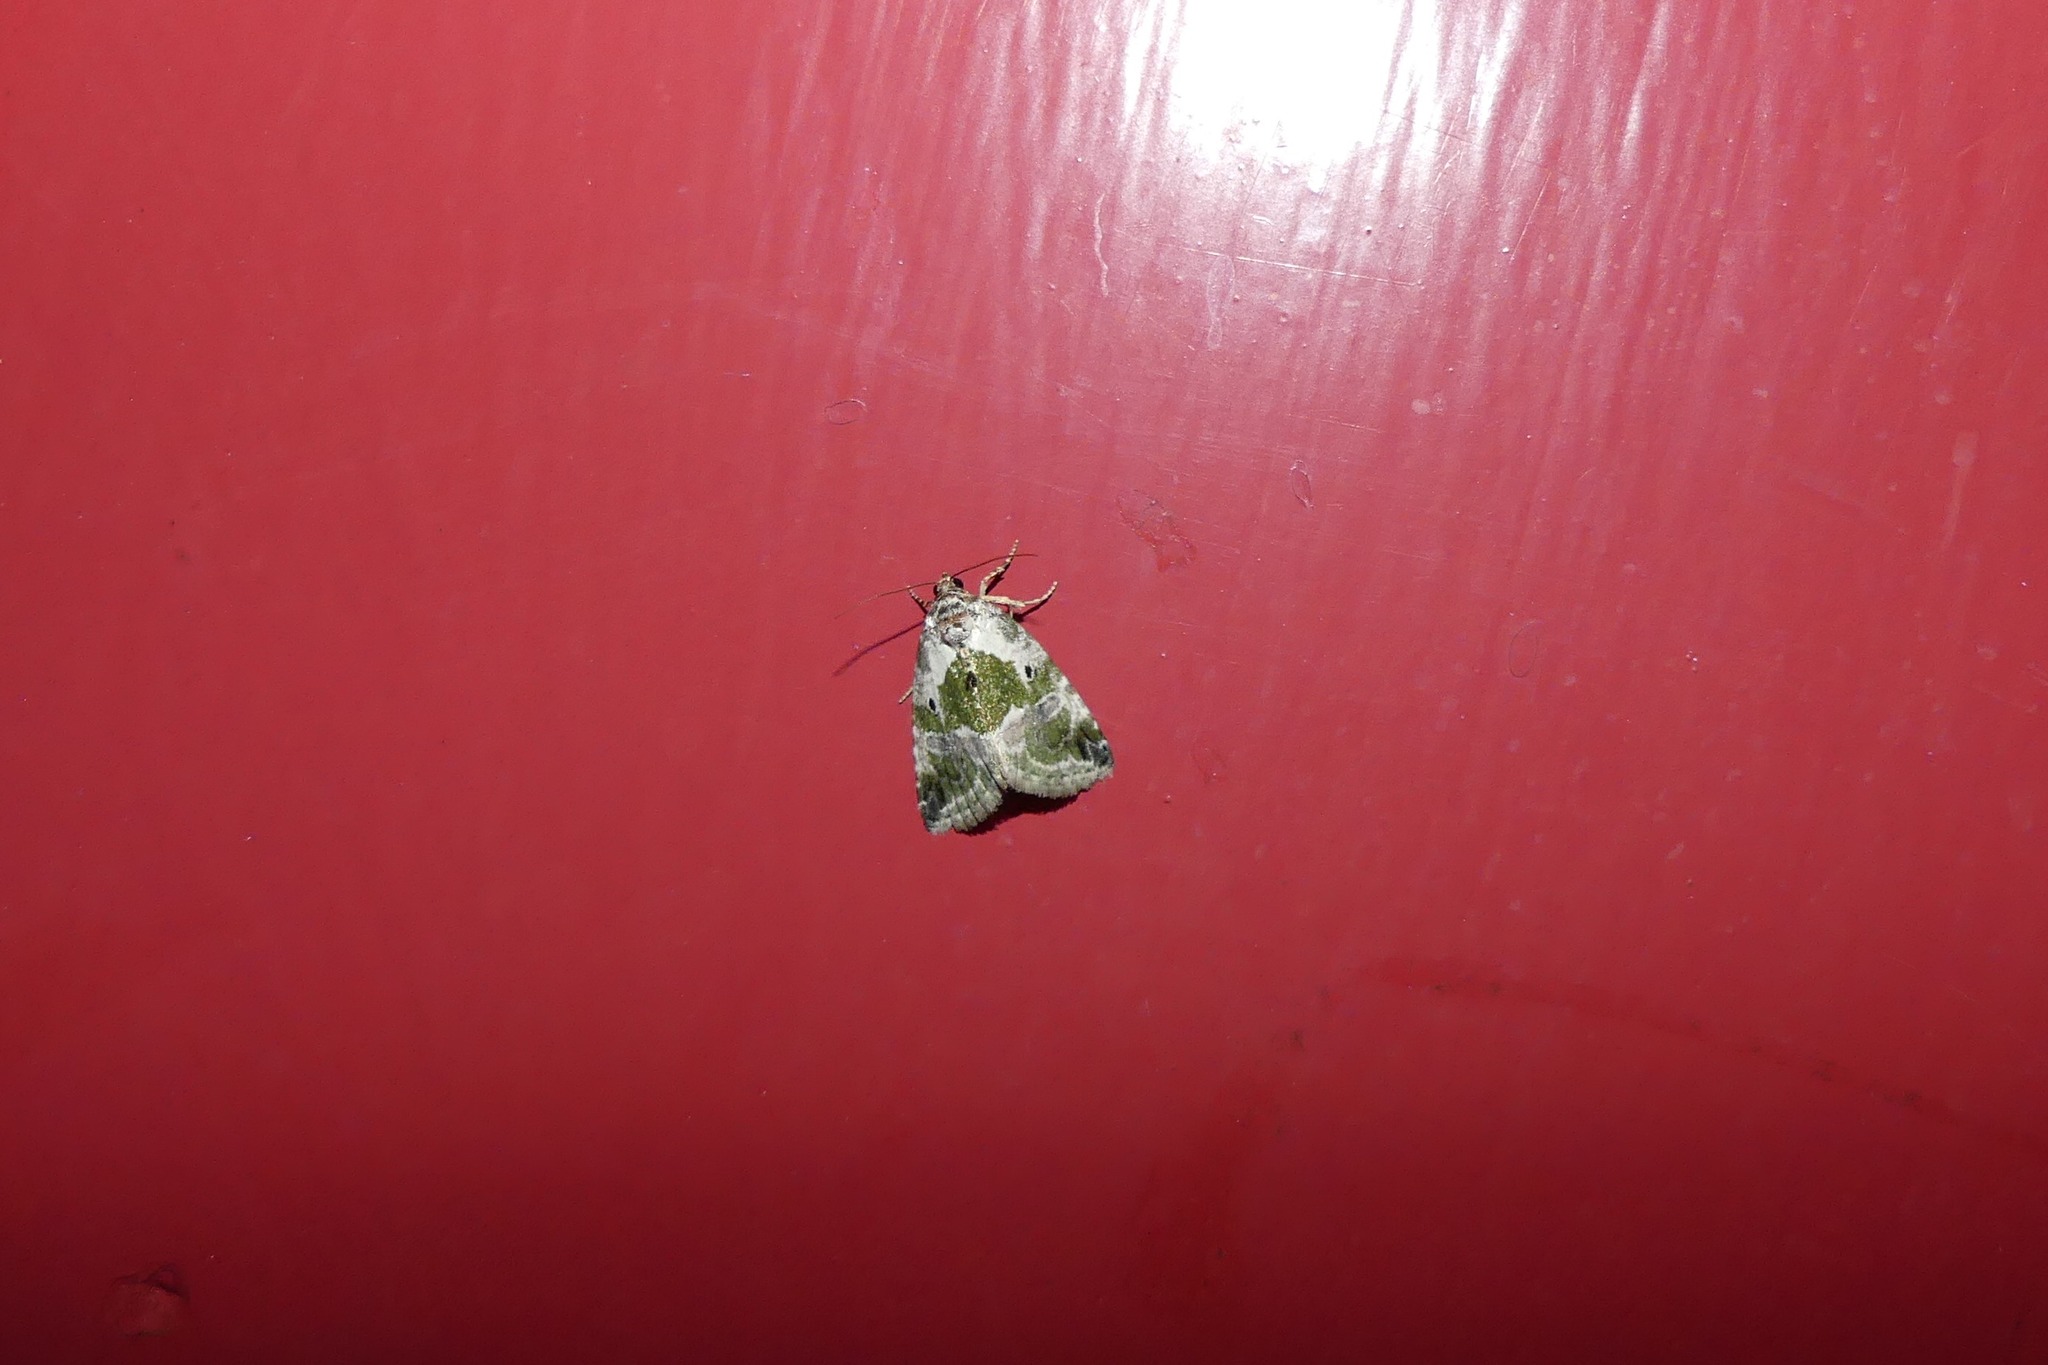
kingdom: Animalia
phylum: Arthropoda
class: Insecta
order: Lepidoptera
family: Noctuidae
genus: Maliattha
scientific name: Maliattha synochitis
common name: Black-dotted glyph
